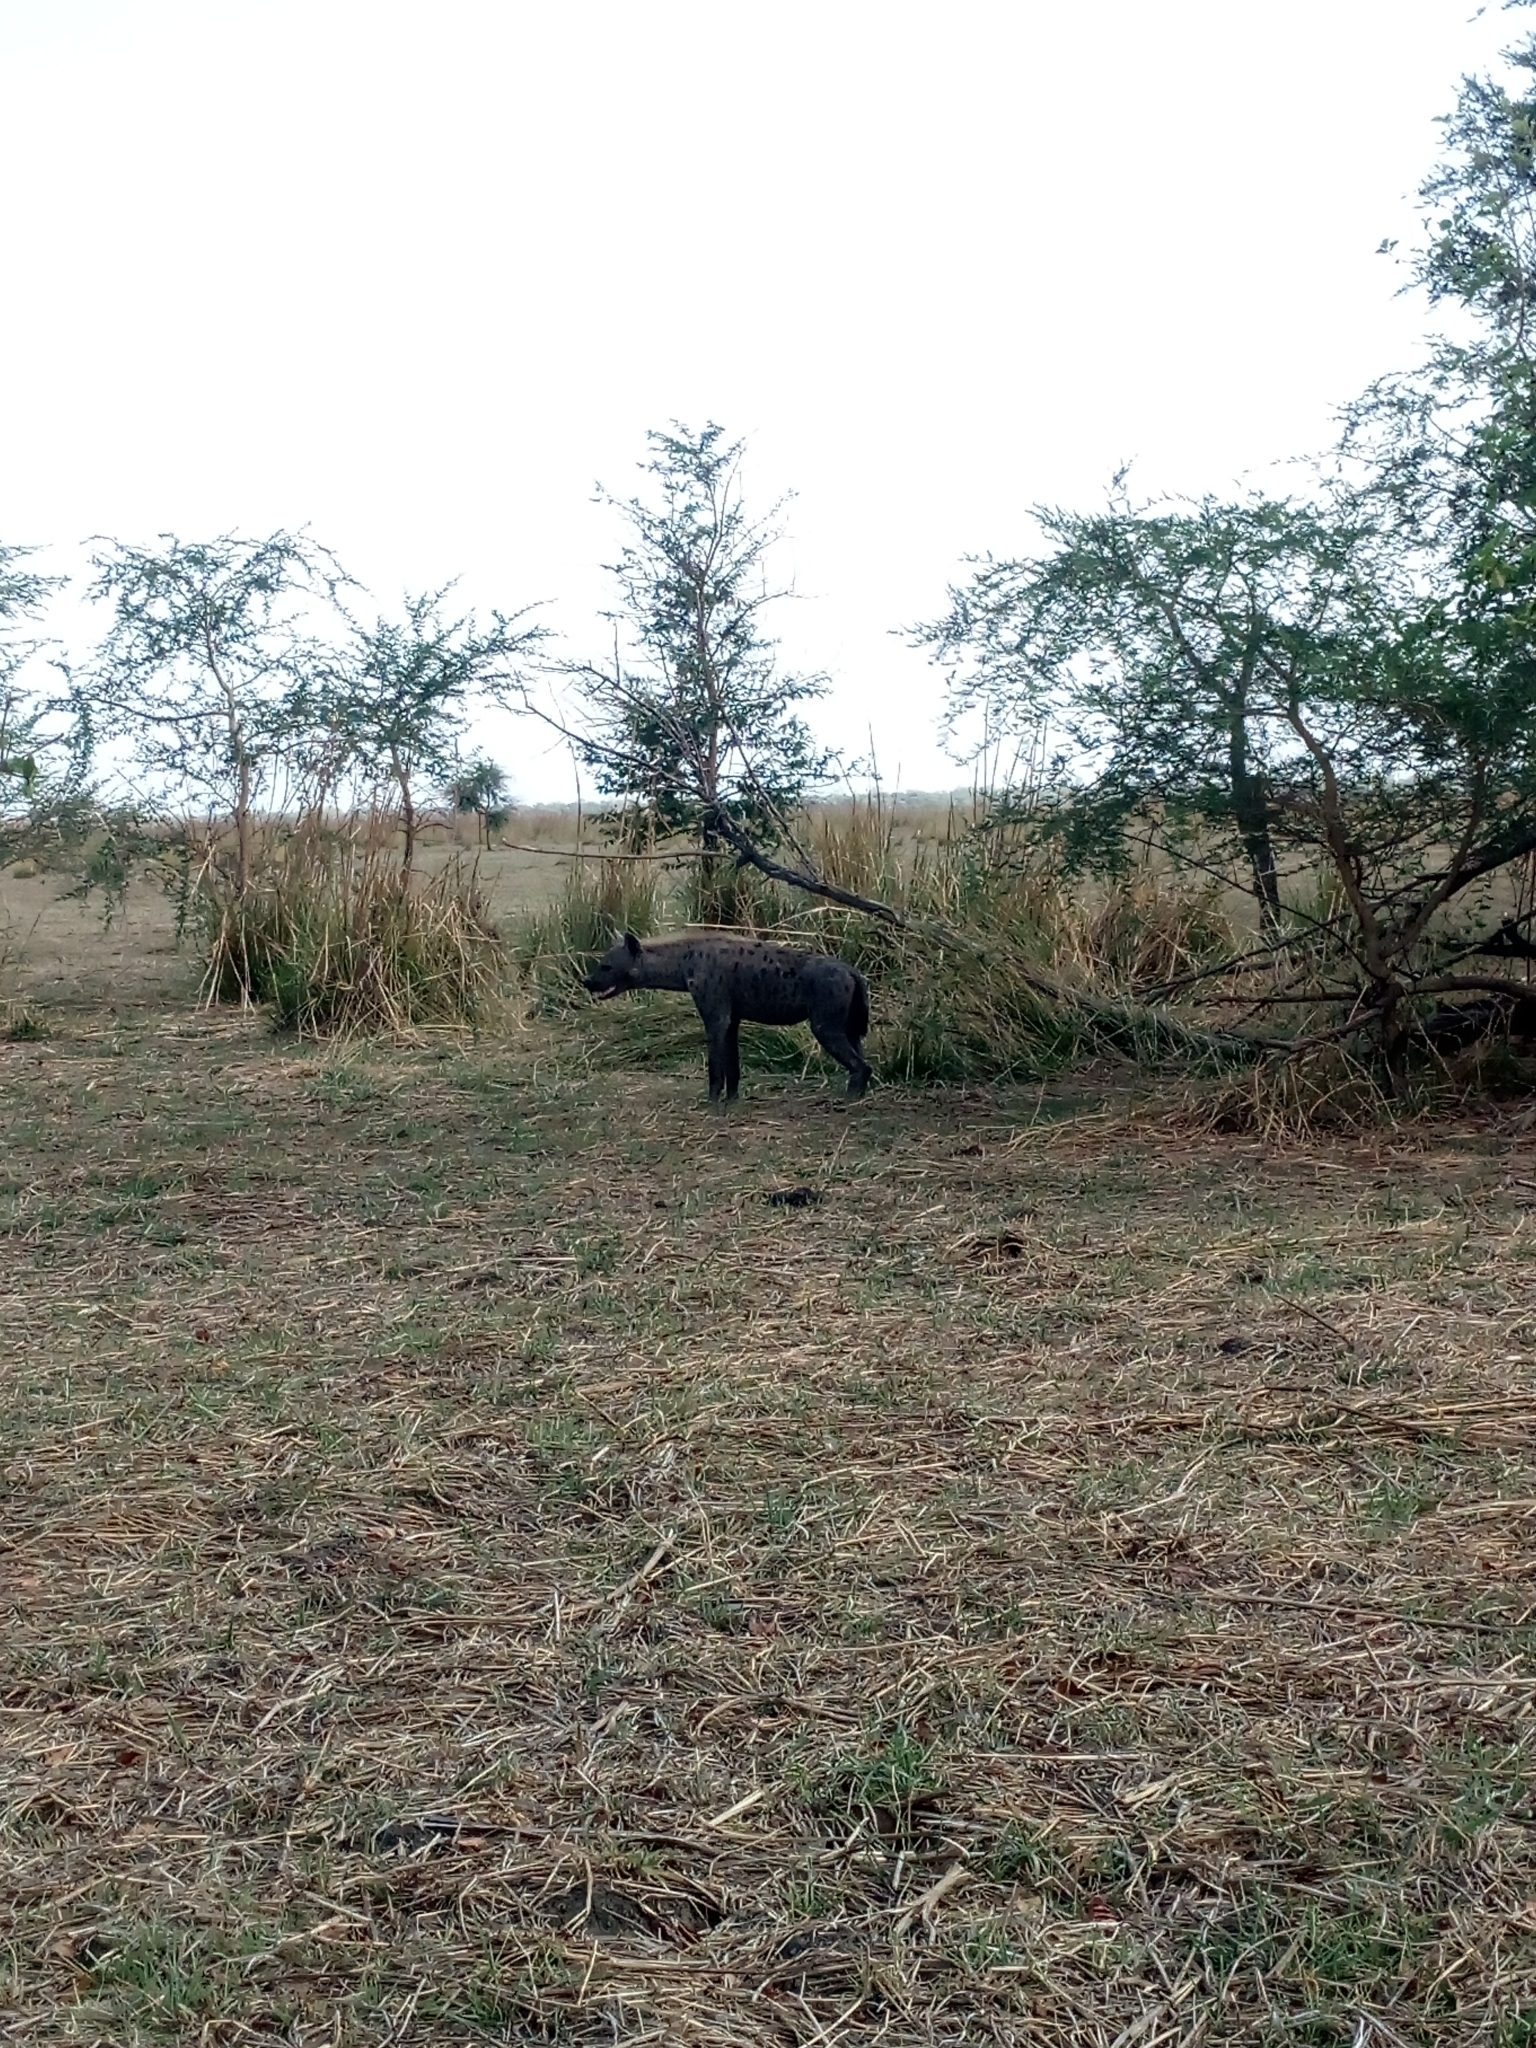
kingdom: Animalia
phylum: Chordata
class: Mammalia
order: Carnivora
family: Hyaenidae
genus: Crocuta
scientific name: Crocuta crocuta
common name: Spotted hyaena
